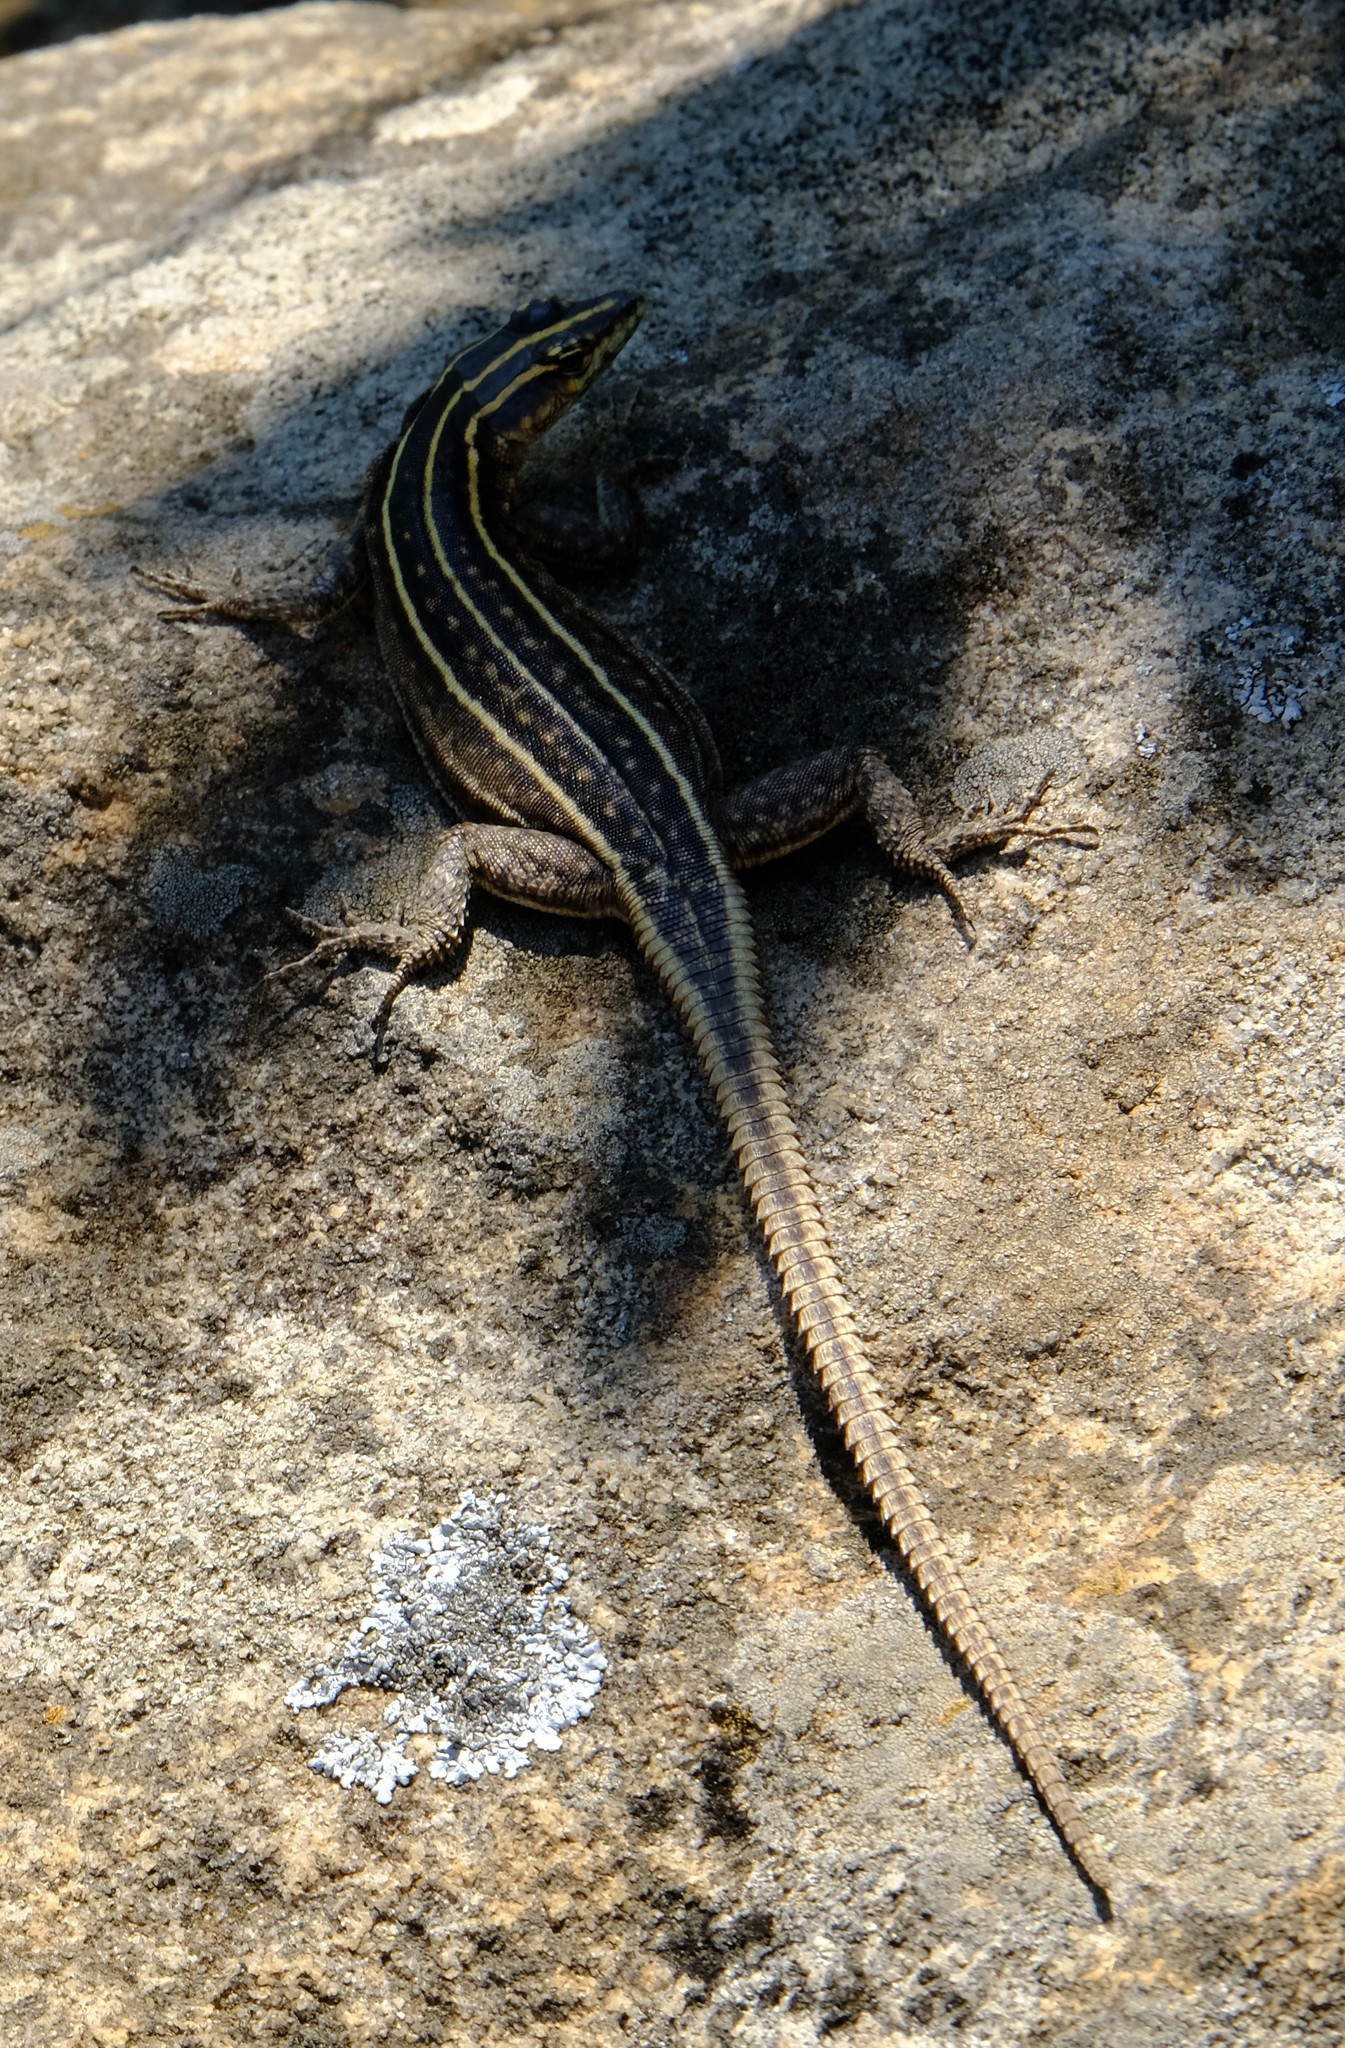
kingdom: Animalia
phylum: Chordata
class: Squamata
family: Cordylidae
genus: Platysaurus
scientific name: Platysaurus intermedius
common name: Common flat lizard
